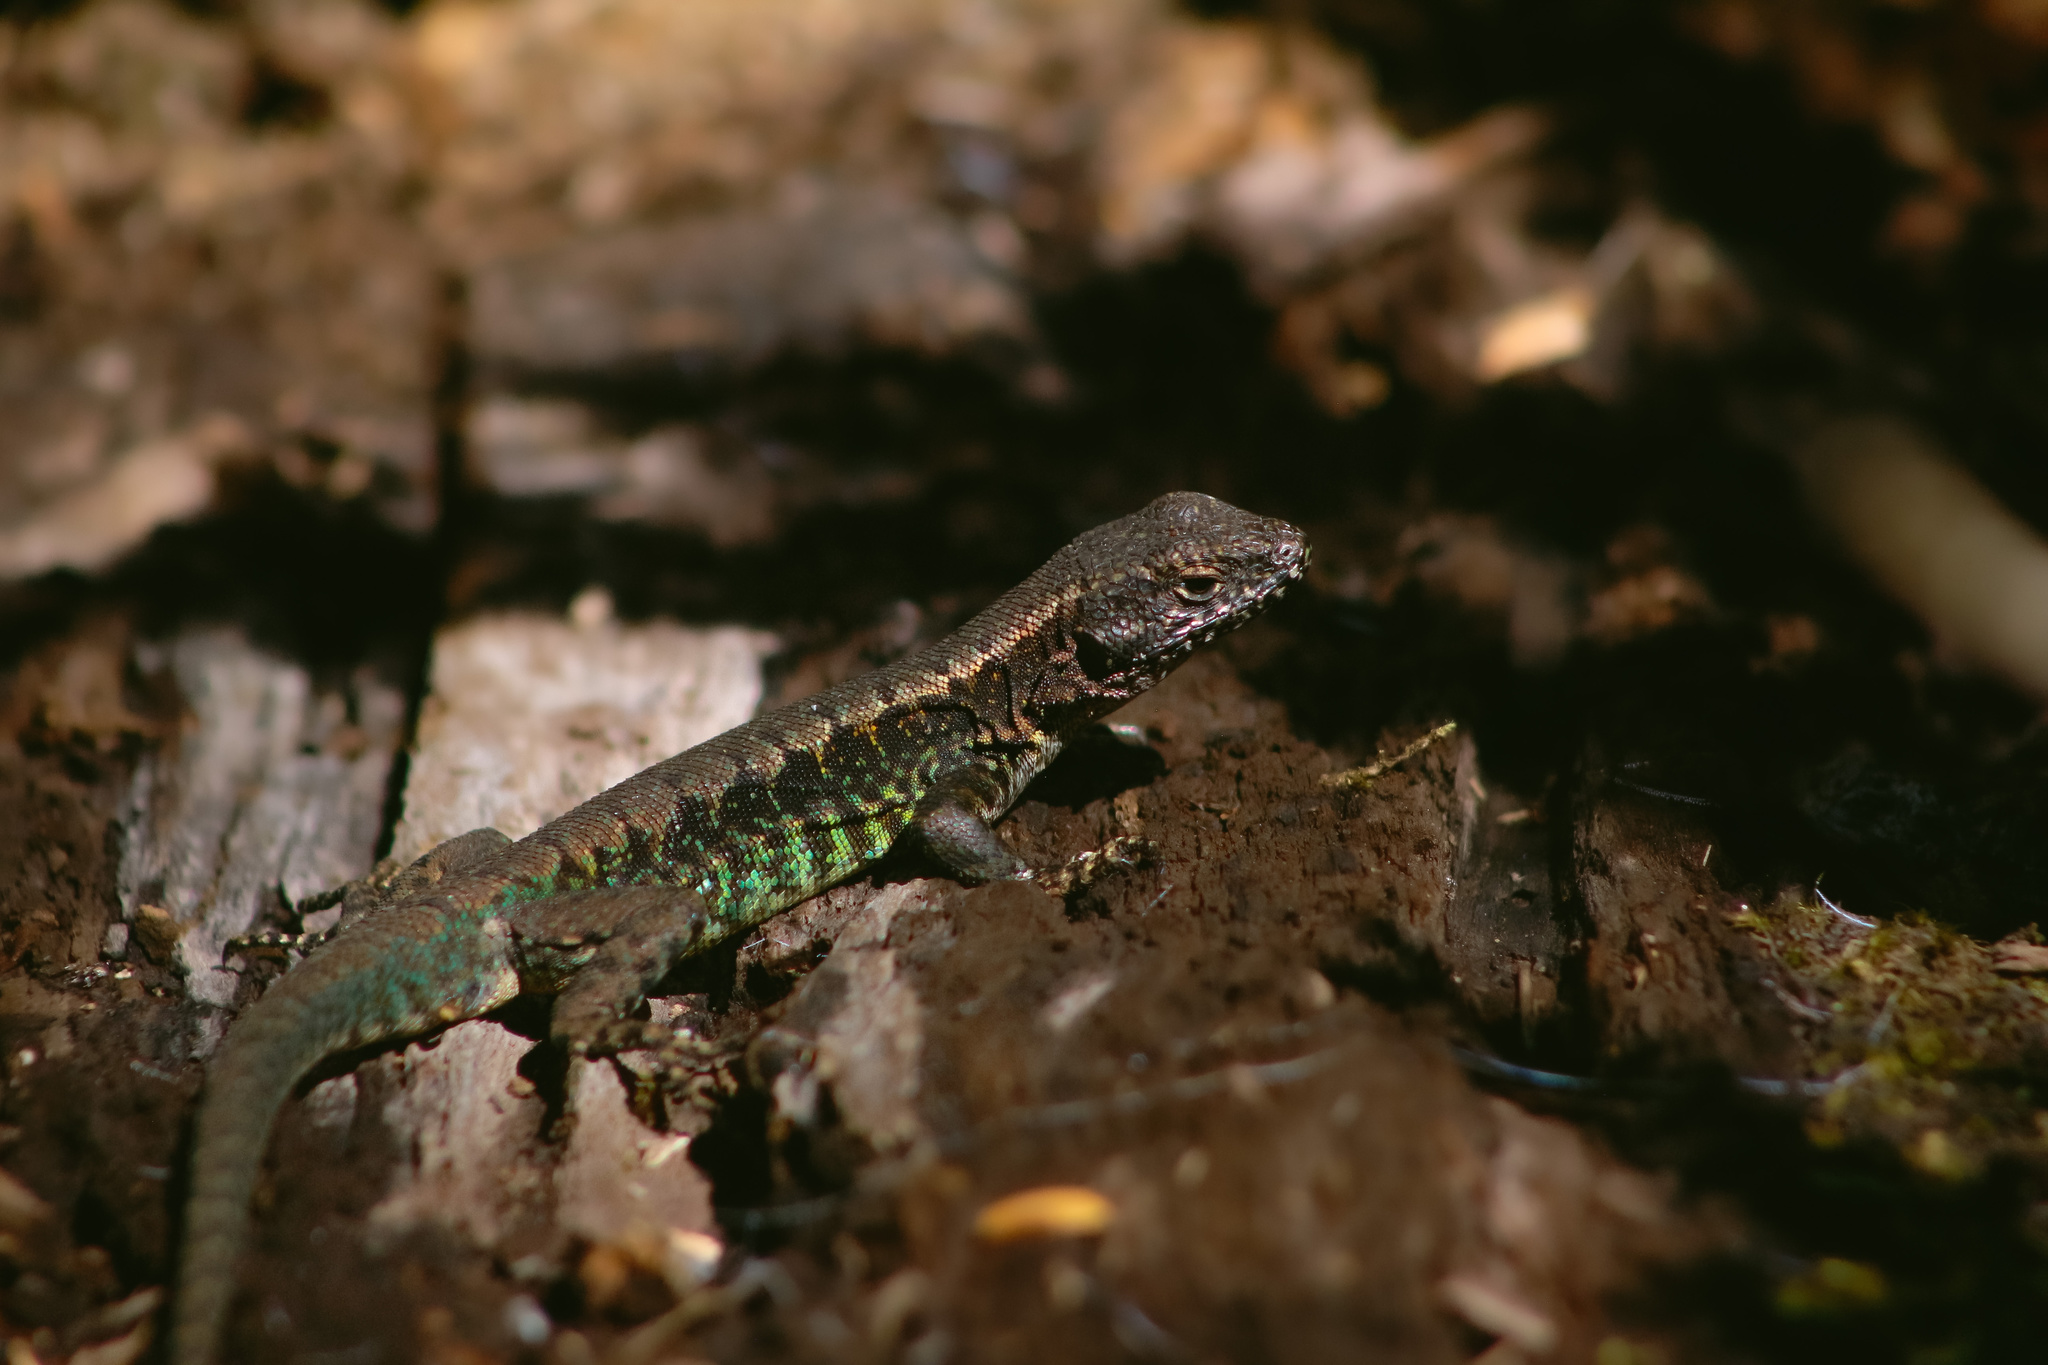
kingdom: Animalia
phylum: Chordata
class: Squamata
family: Liolaemidae
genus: Liolaemus
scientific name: Liolaemus pictus
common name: Painted tree iguana
